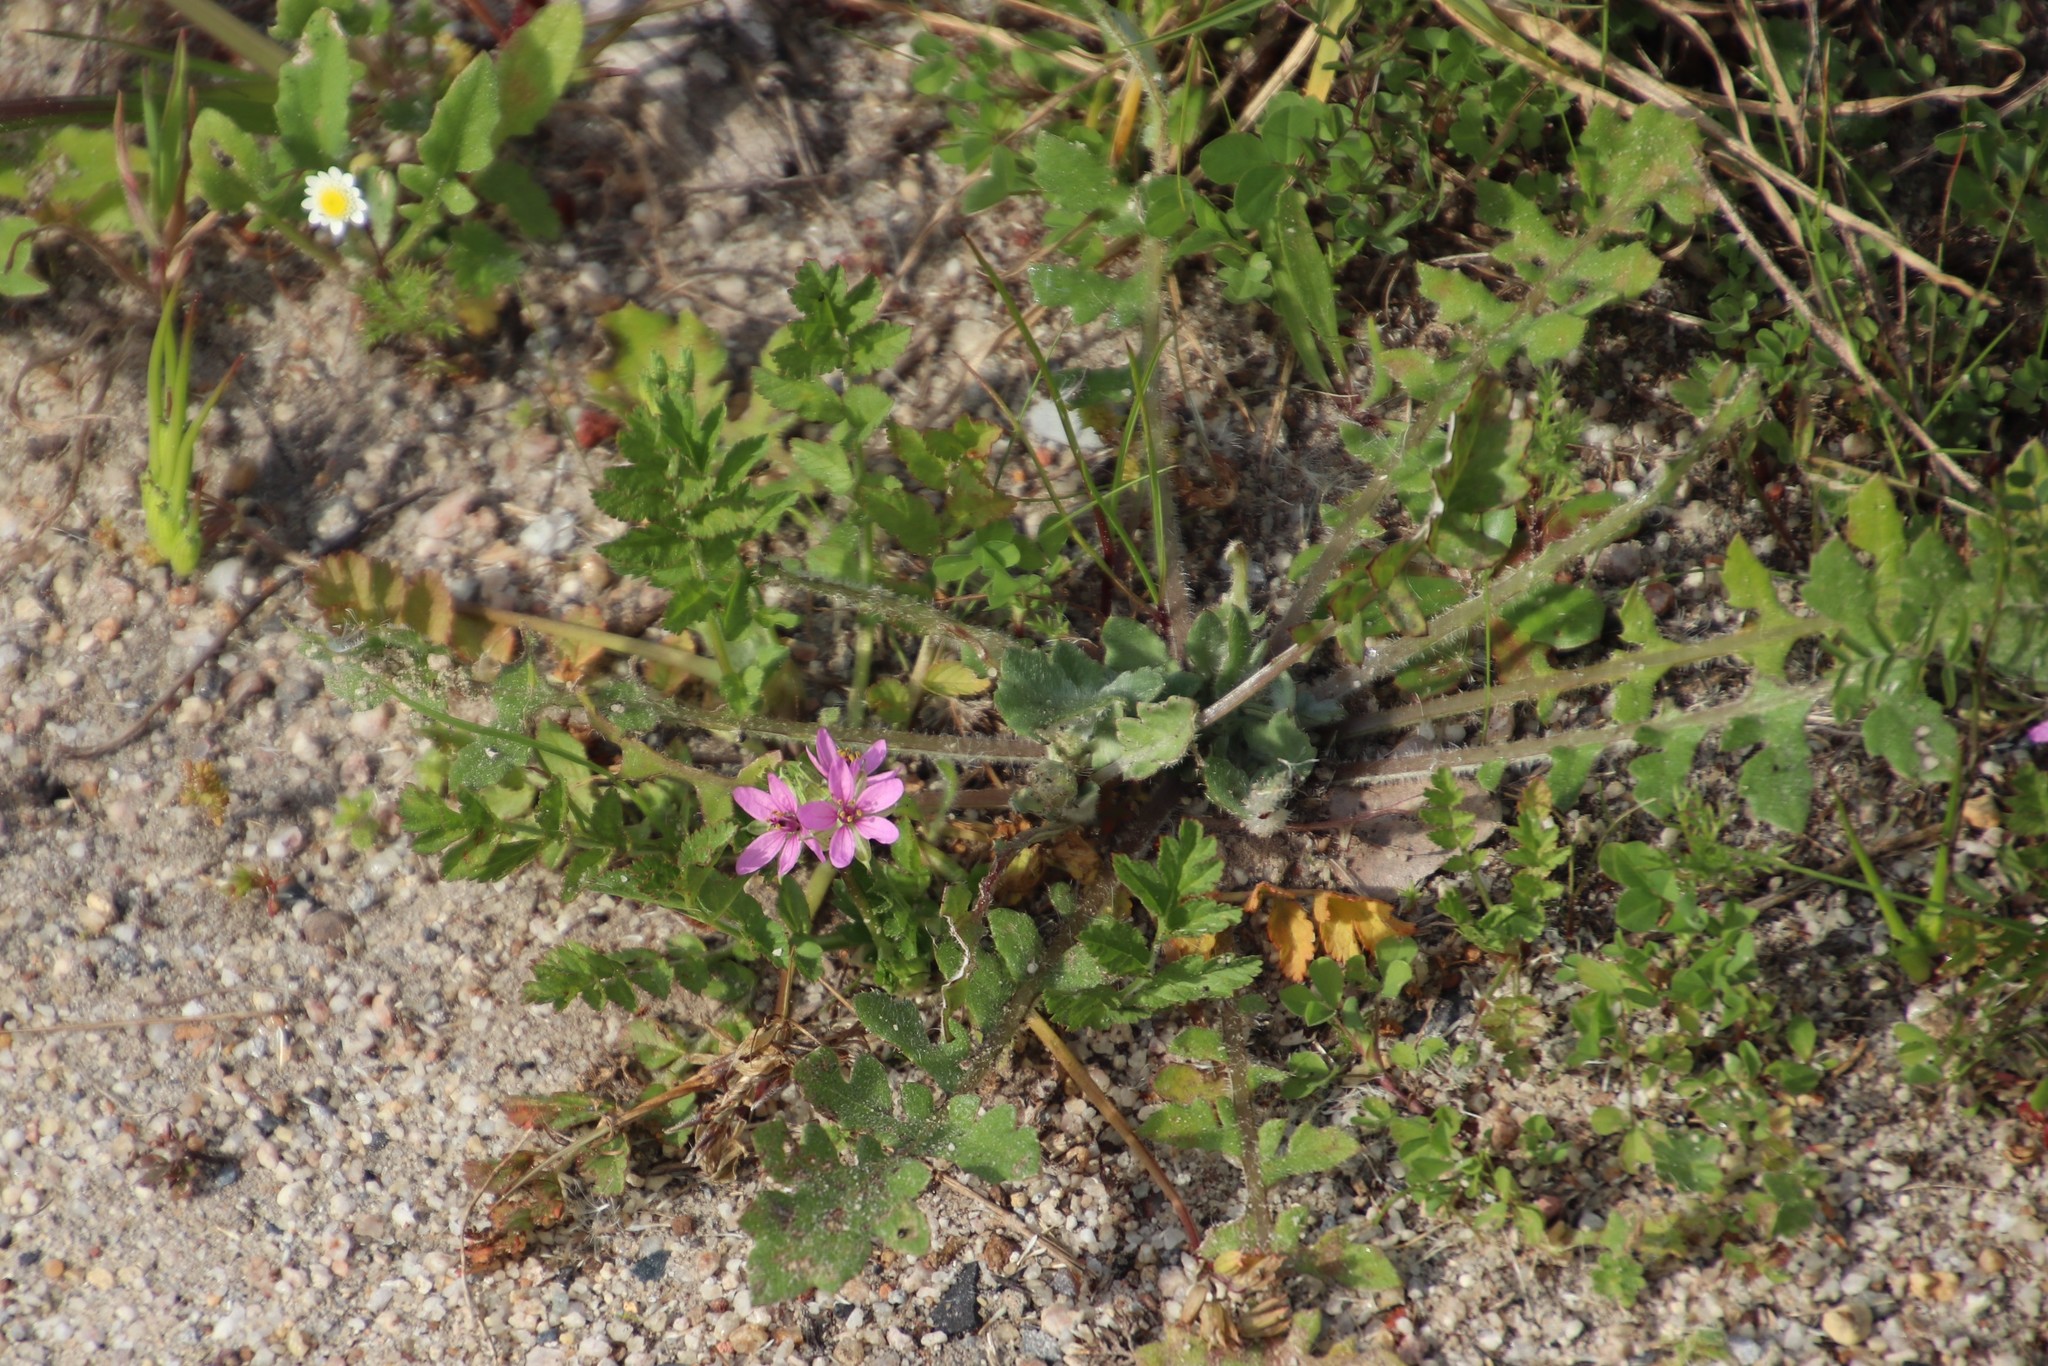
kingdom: Plantae
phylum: Tracheophyta
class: Magnoliopsida
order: Geraniales
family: Geraniaceae
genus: Erodium
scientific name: Erodium moschatum
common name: Musk stork's-bill
